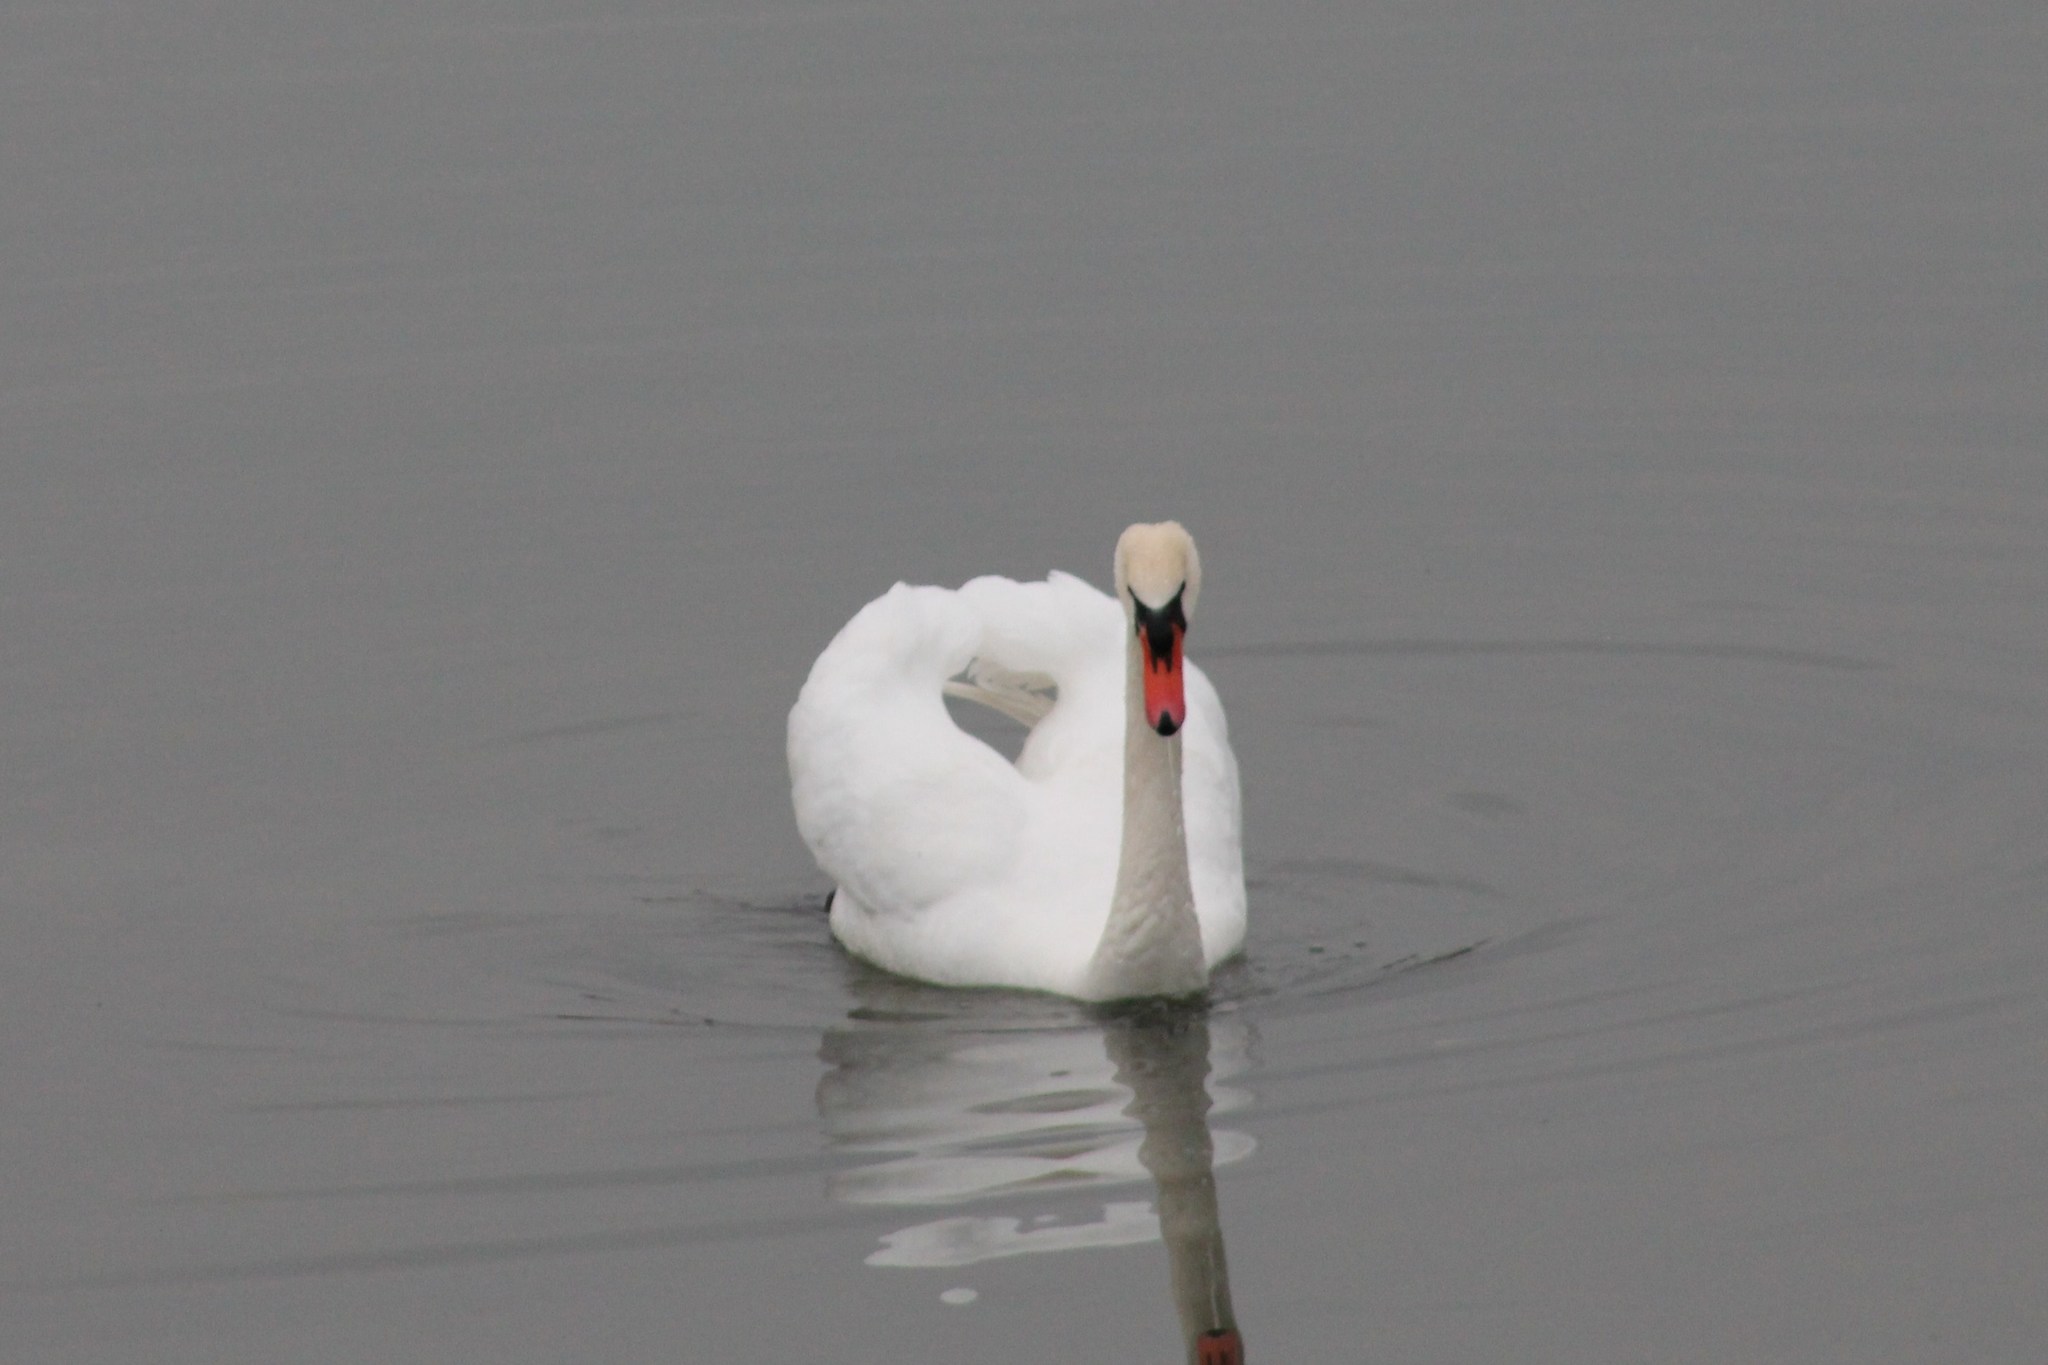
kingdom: Animalia
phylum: Chordata
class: Aves
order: Anseriformes
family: Anatidae
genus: Cygnus
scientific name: Cygnus olor
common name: Mute swan
